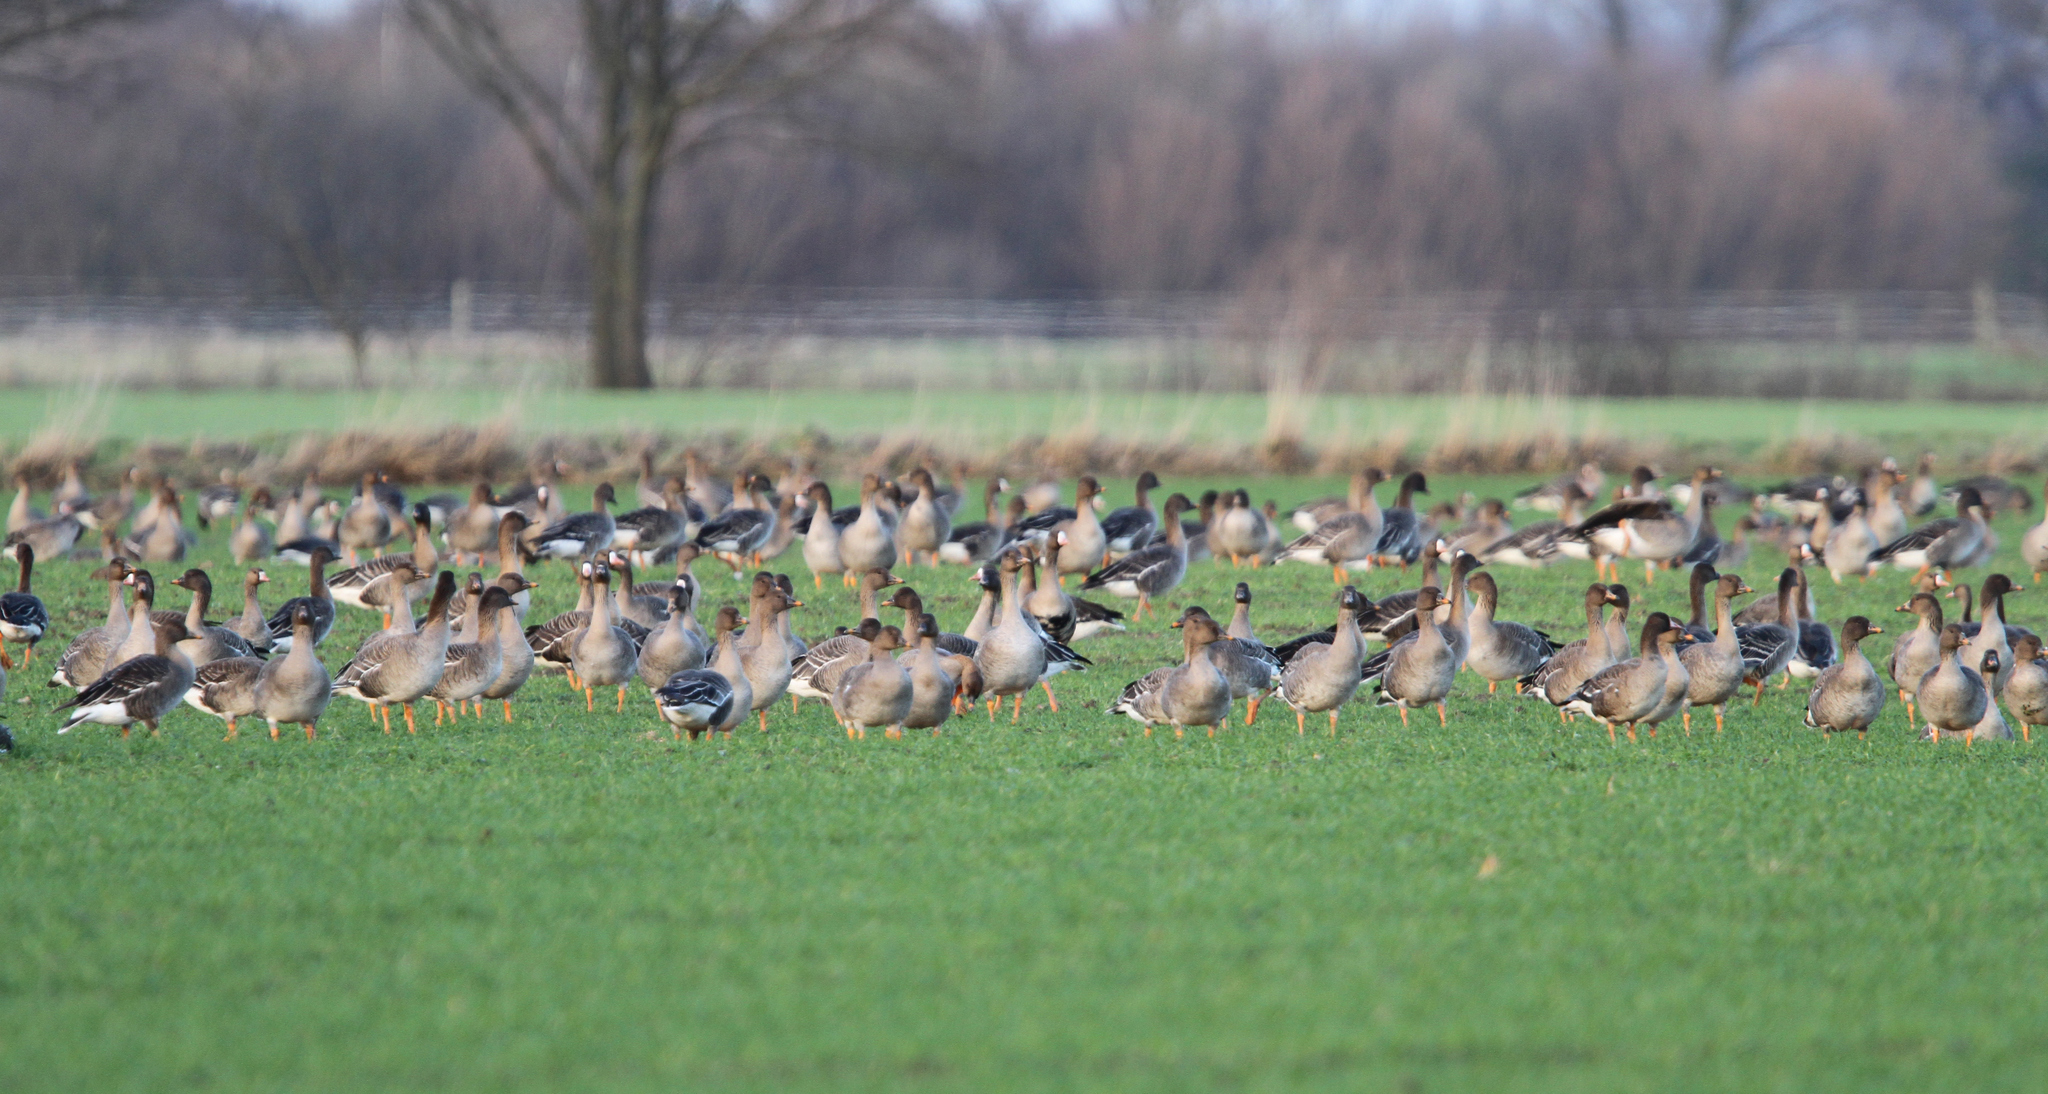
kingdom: Animalia
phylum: Chordata
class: Aves
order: Anseriformes
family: Anatidae
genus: Anser
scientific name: Anser albifrons
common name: Greater white-fronted goose
